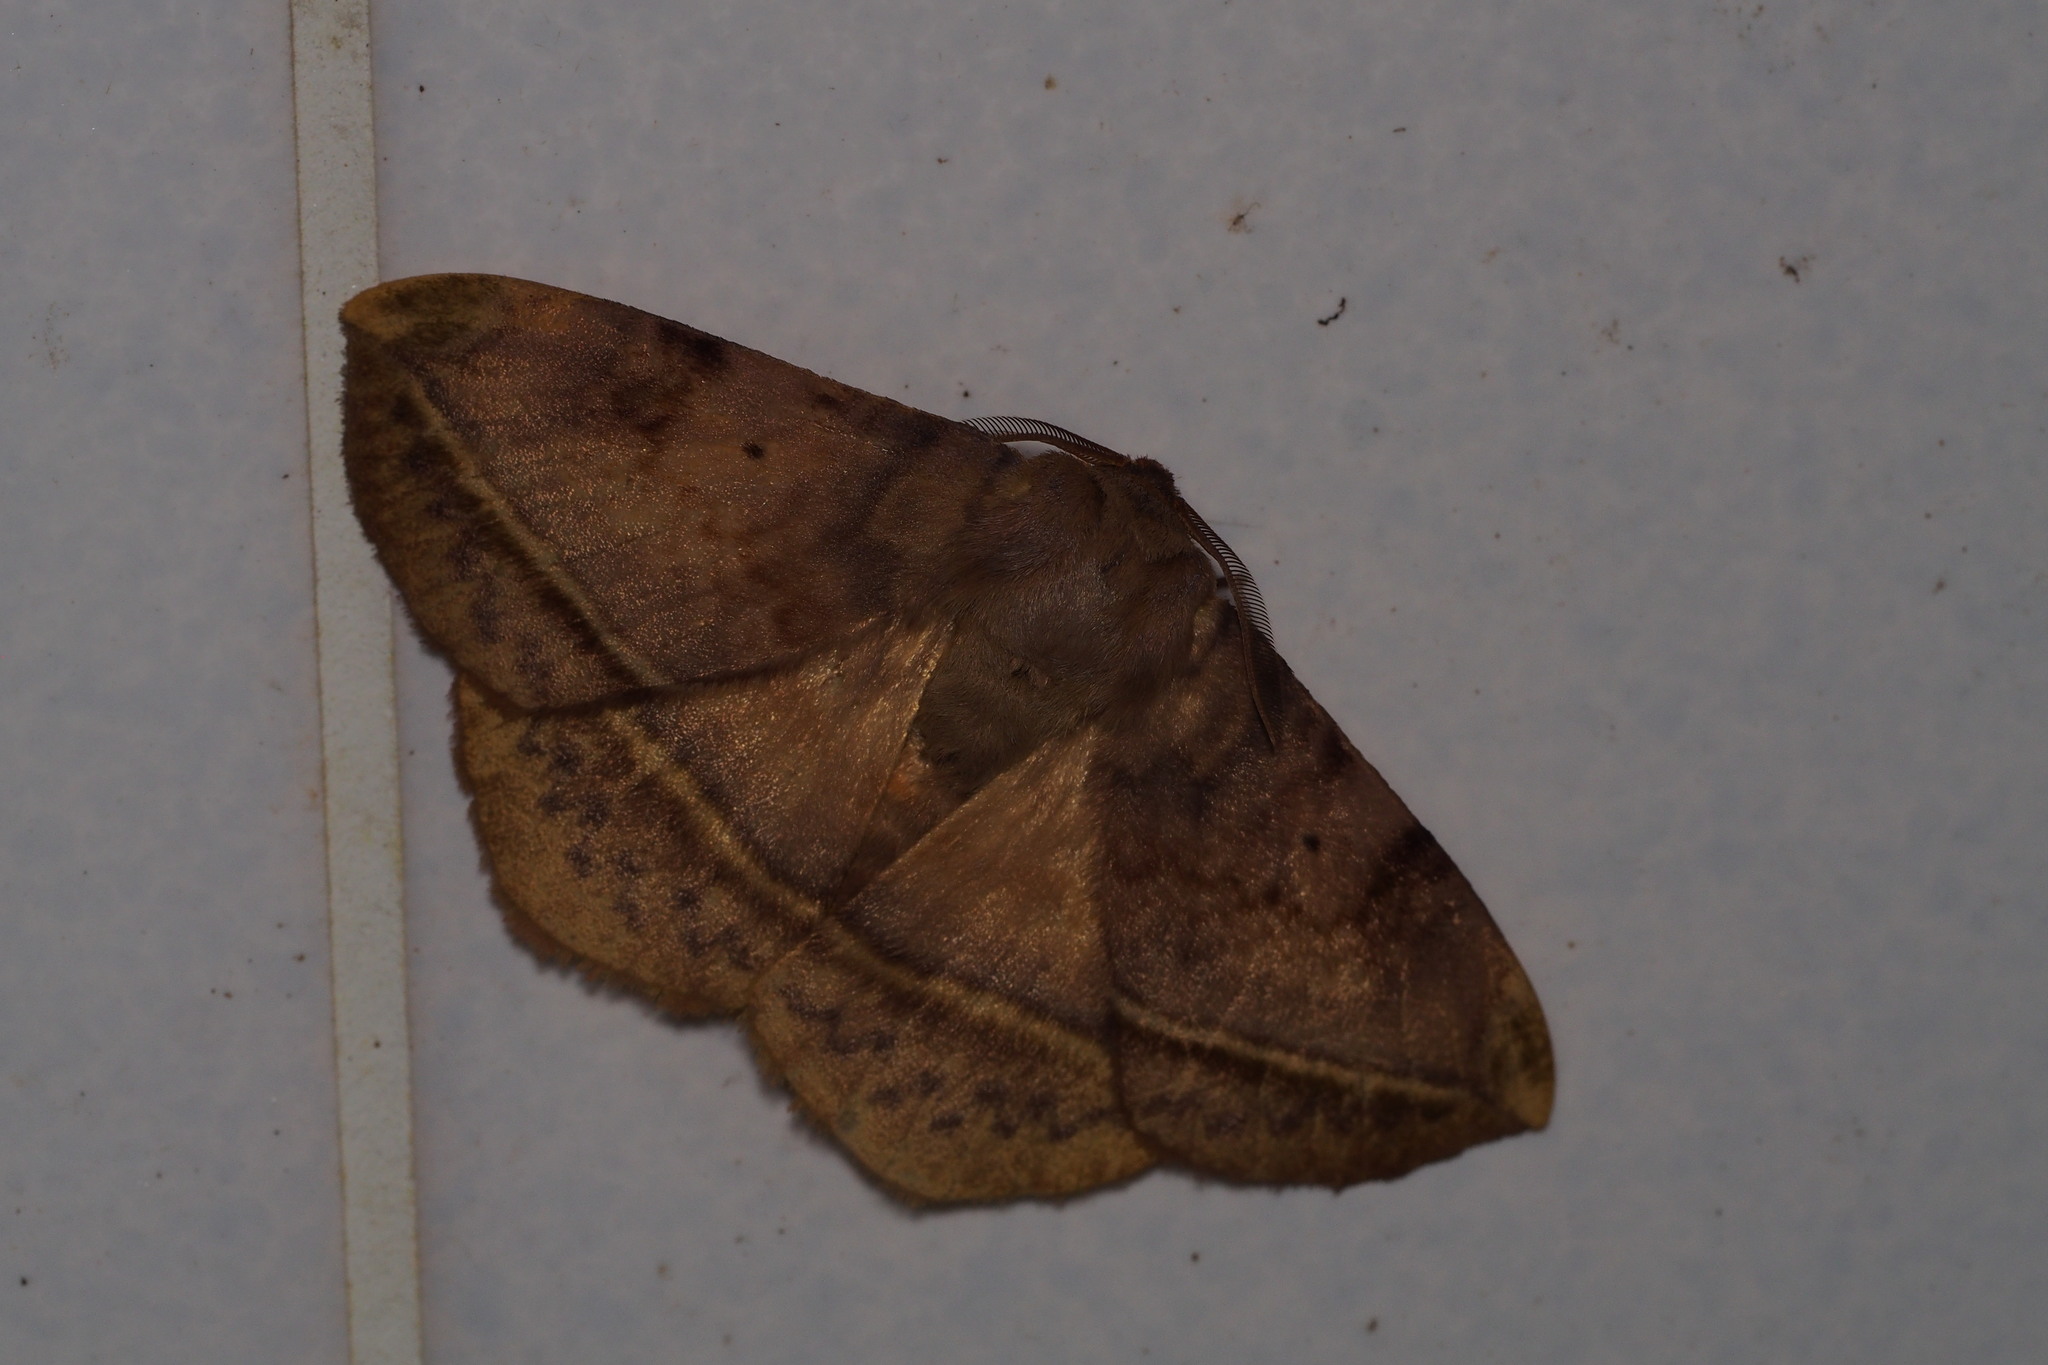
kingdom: Animalia
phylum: Arthropoda
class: Insecta
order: Lepidoptera
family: Eupterotidae
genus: Apha
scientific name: Apha aequalis
